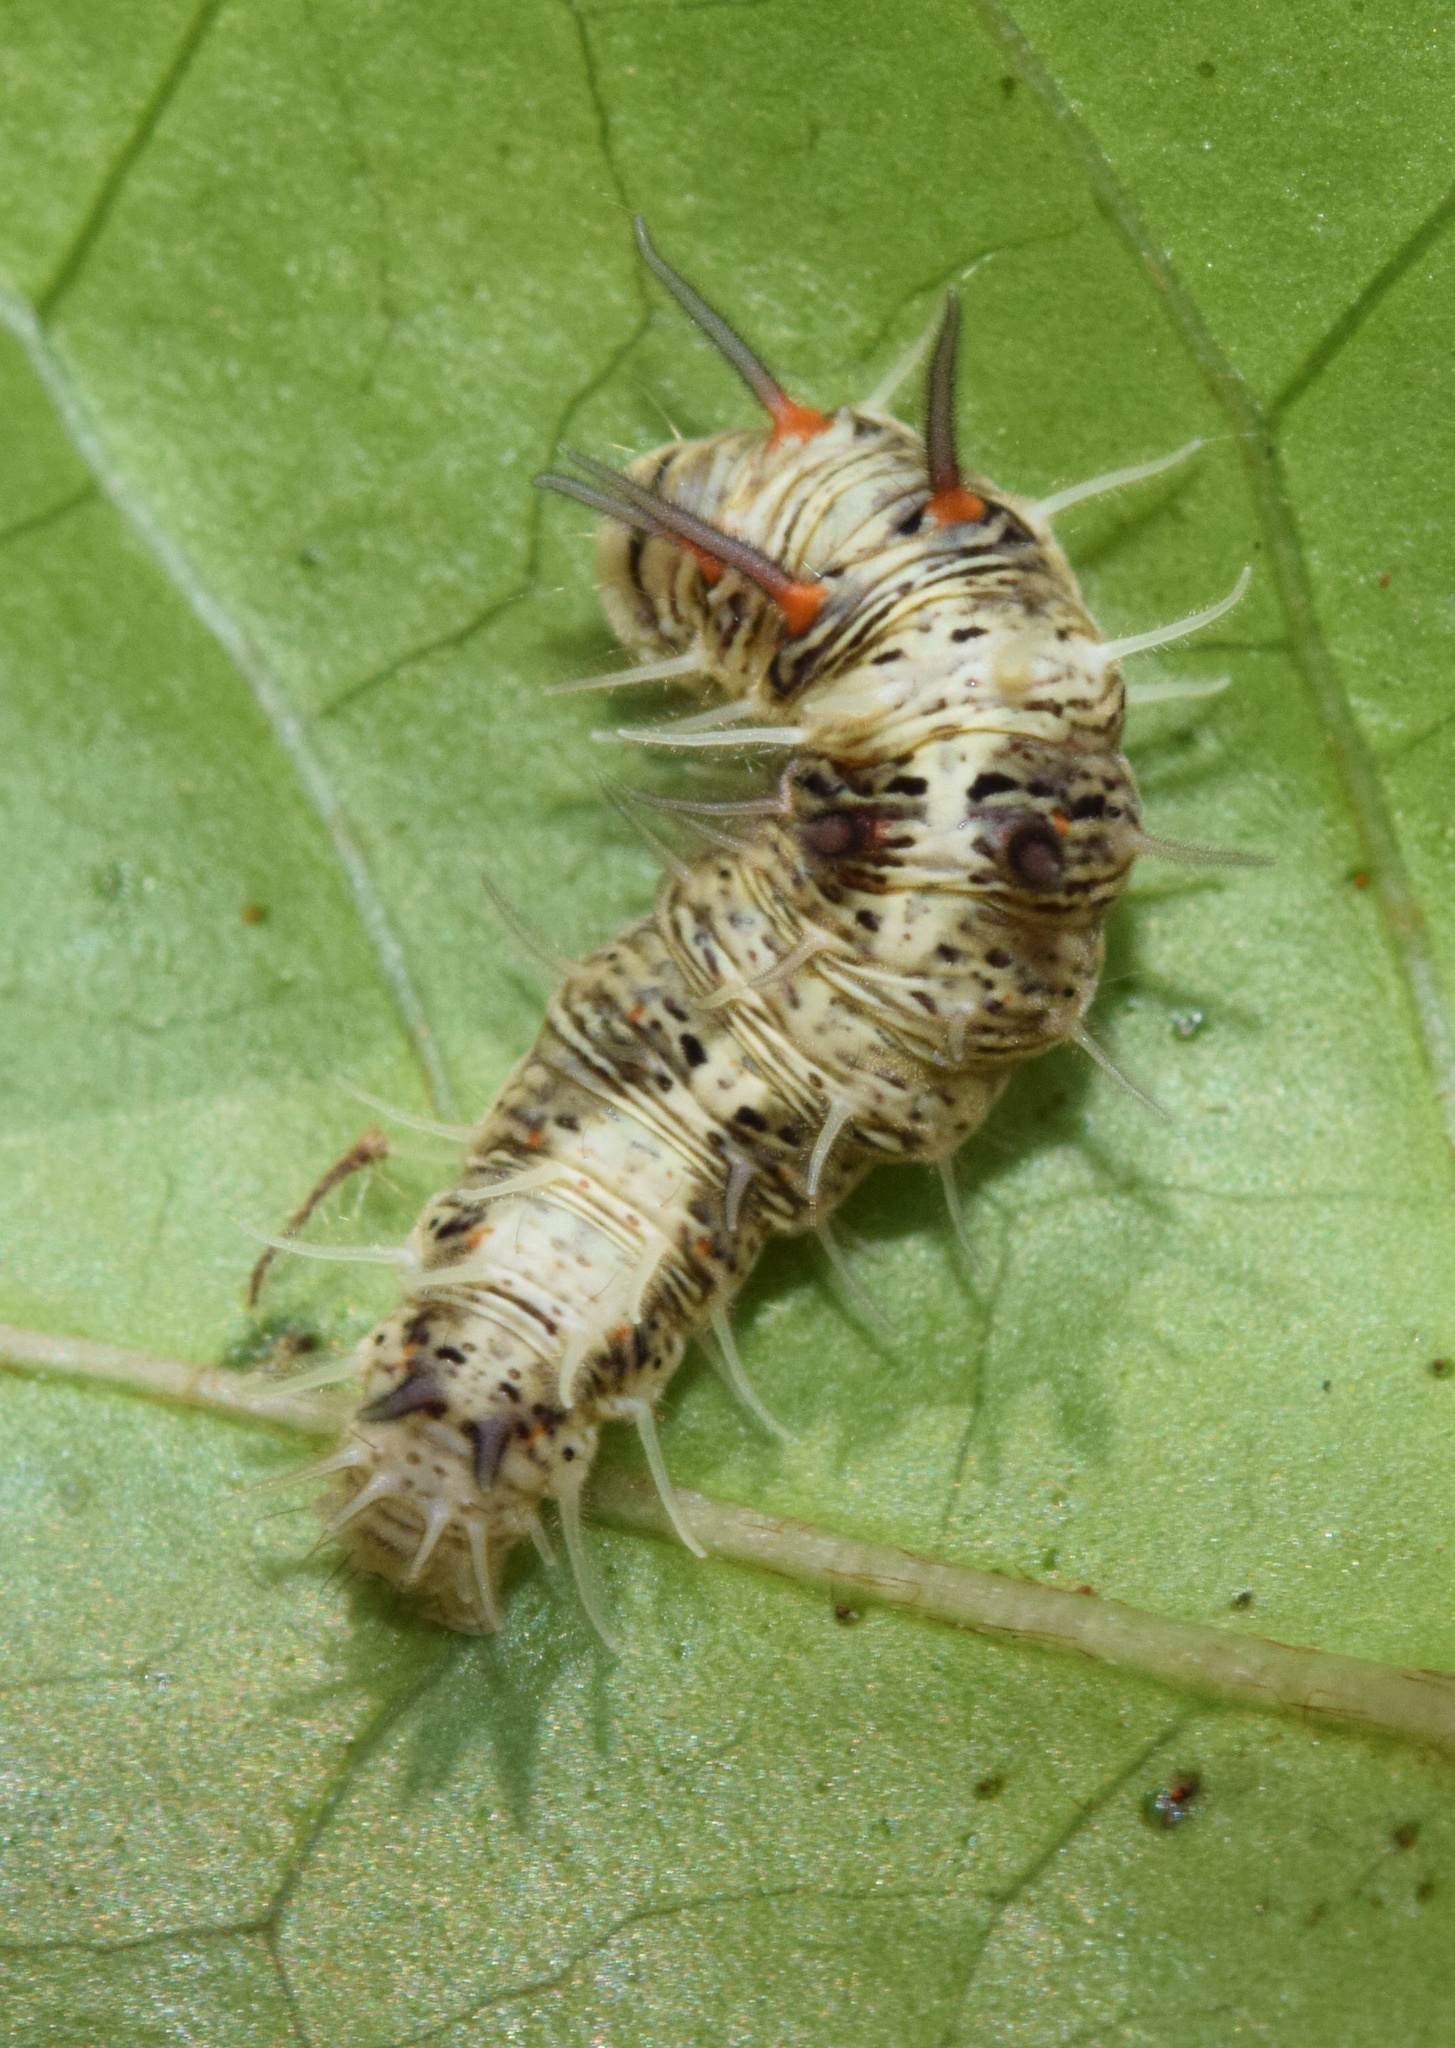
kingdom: Animalia
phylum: Arthropoda
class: Insecta
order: Lepidoptera
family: Nolidae
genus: Earias
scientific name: Earias biplaga
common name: Spiny bollworm
